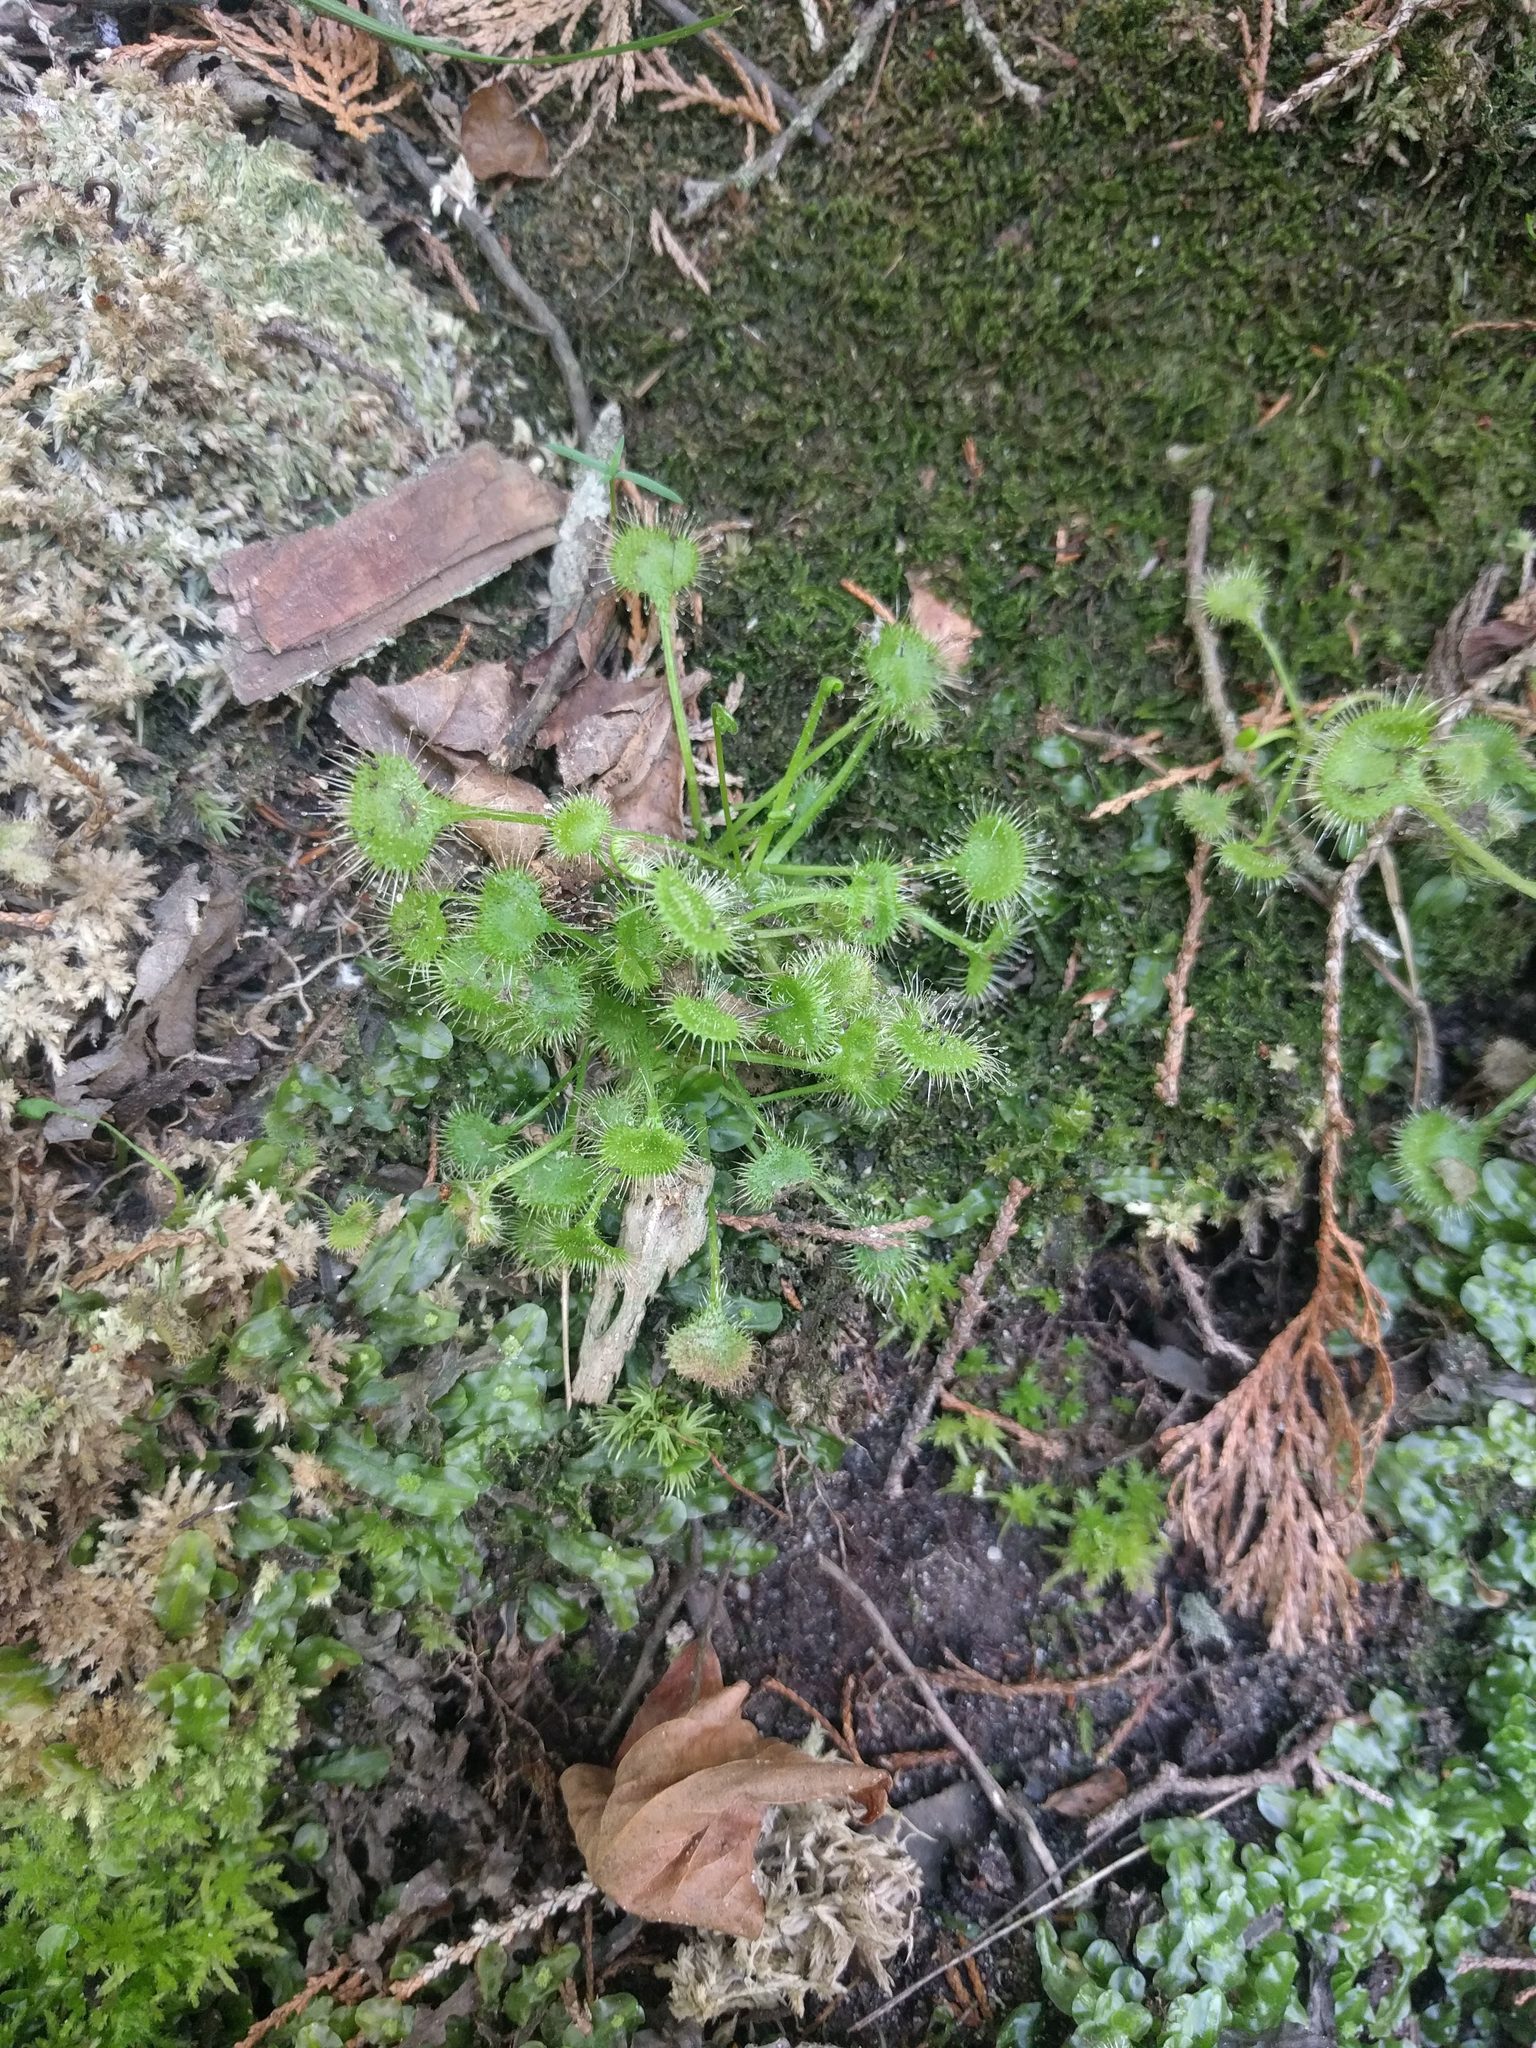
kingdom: Plantae
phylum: Tracheophyta
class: Magnoliopsida
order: Caryophyllales
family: Droseraceae
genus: Drosera
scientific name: Drosera rotundifolia
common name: Round-leaved sundew
